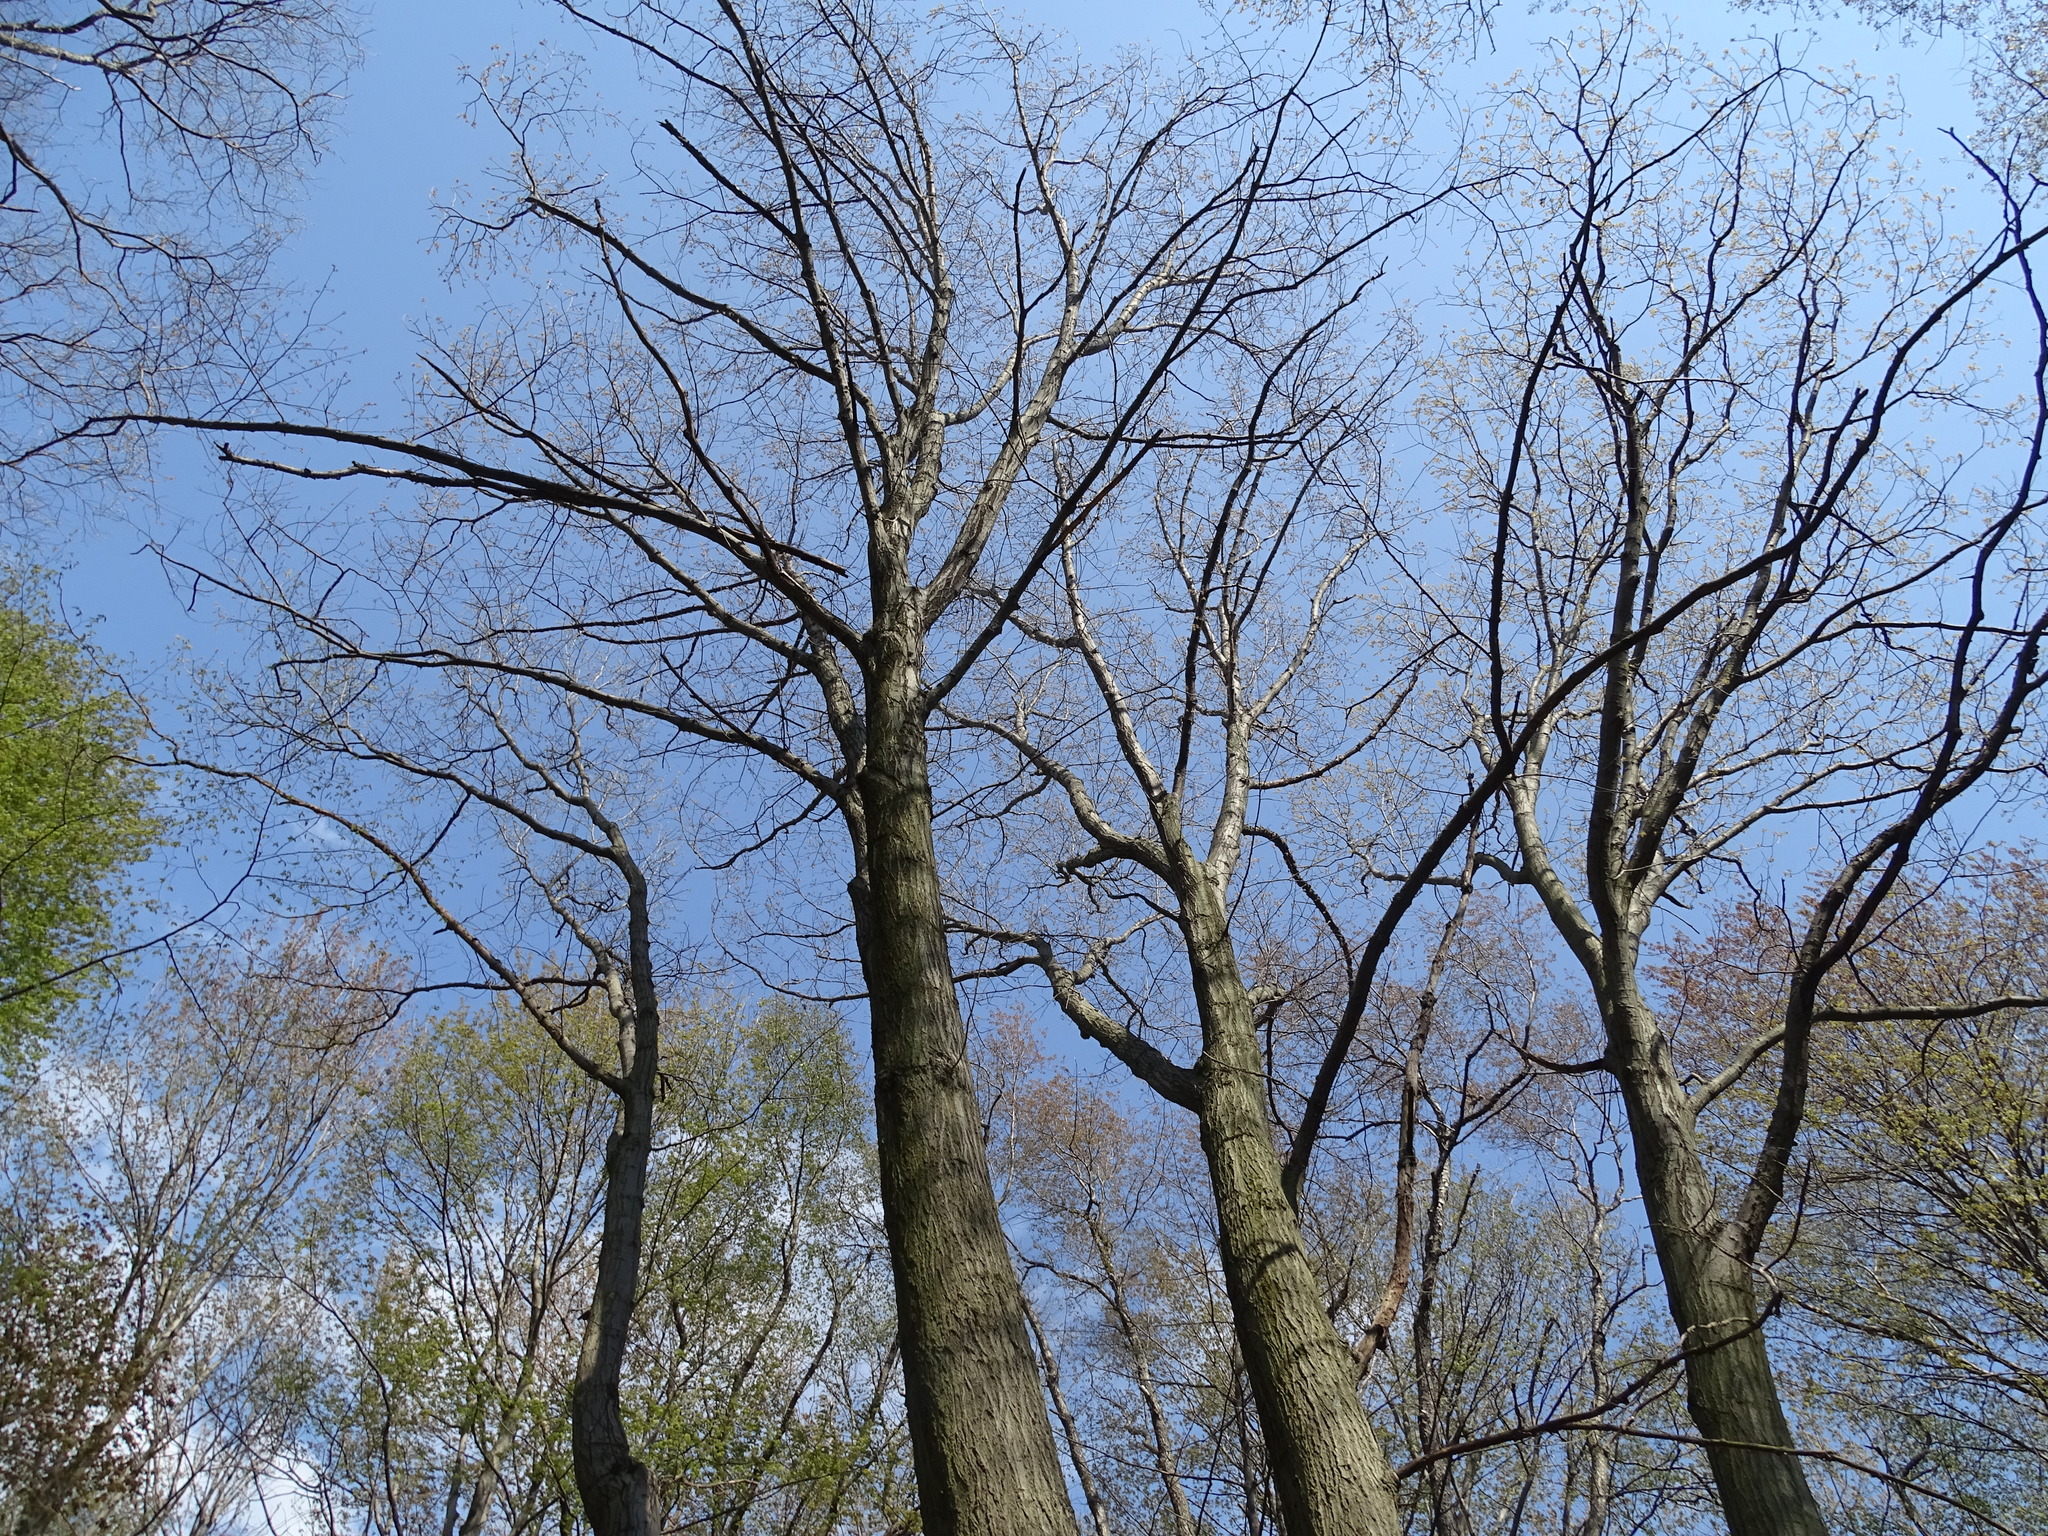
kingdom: Plantae
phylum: Tracheophyta
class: Magnoliopsida
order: Fagales
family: Fagaceae
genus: Quercus
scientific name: Quercus rubra
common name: Red oak
